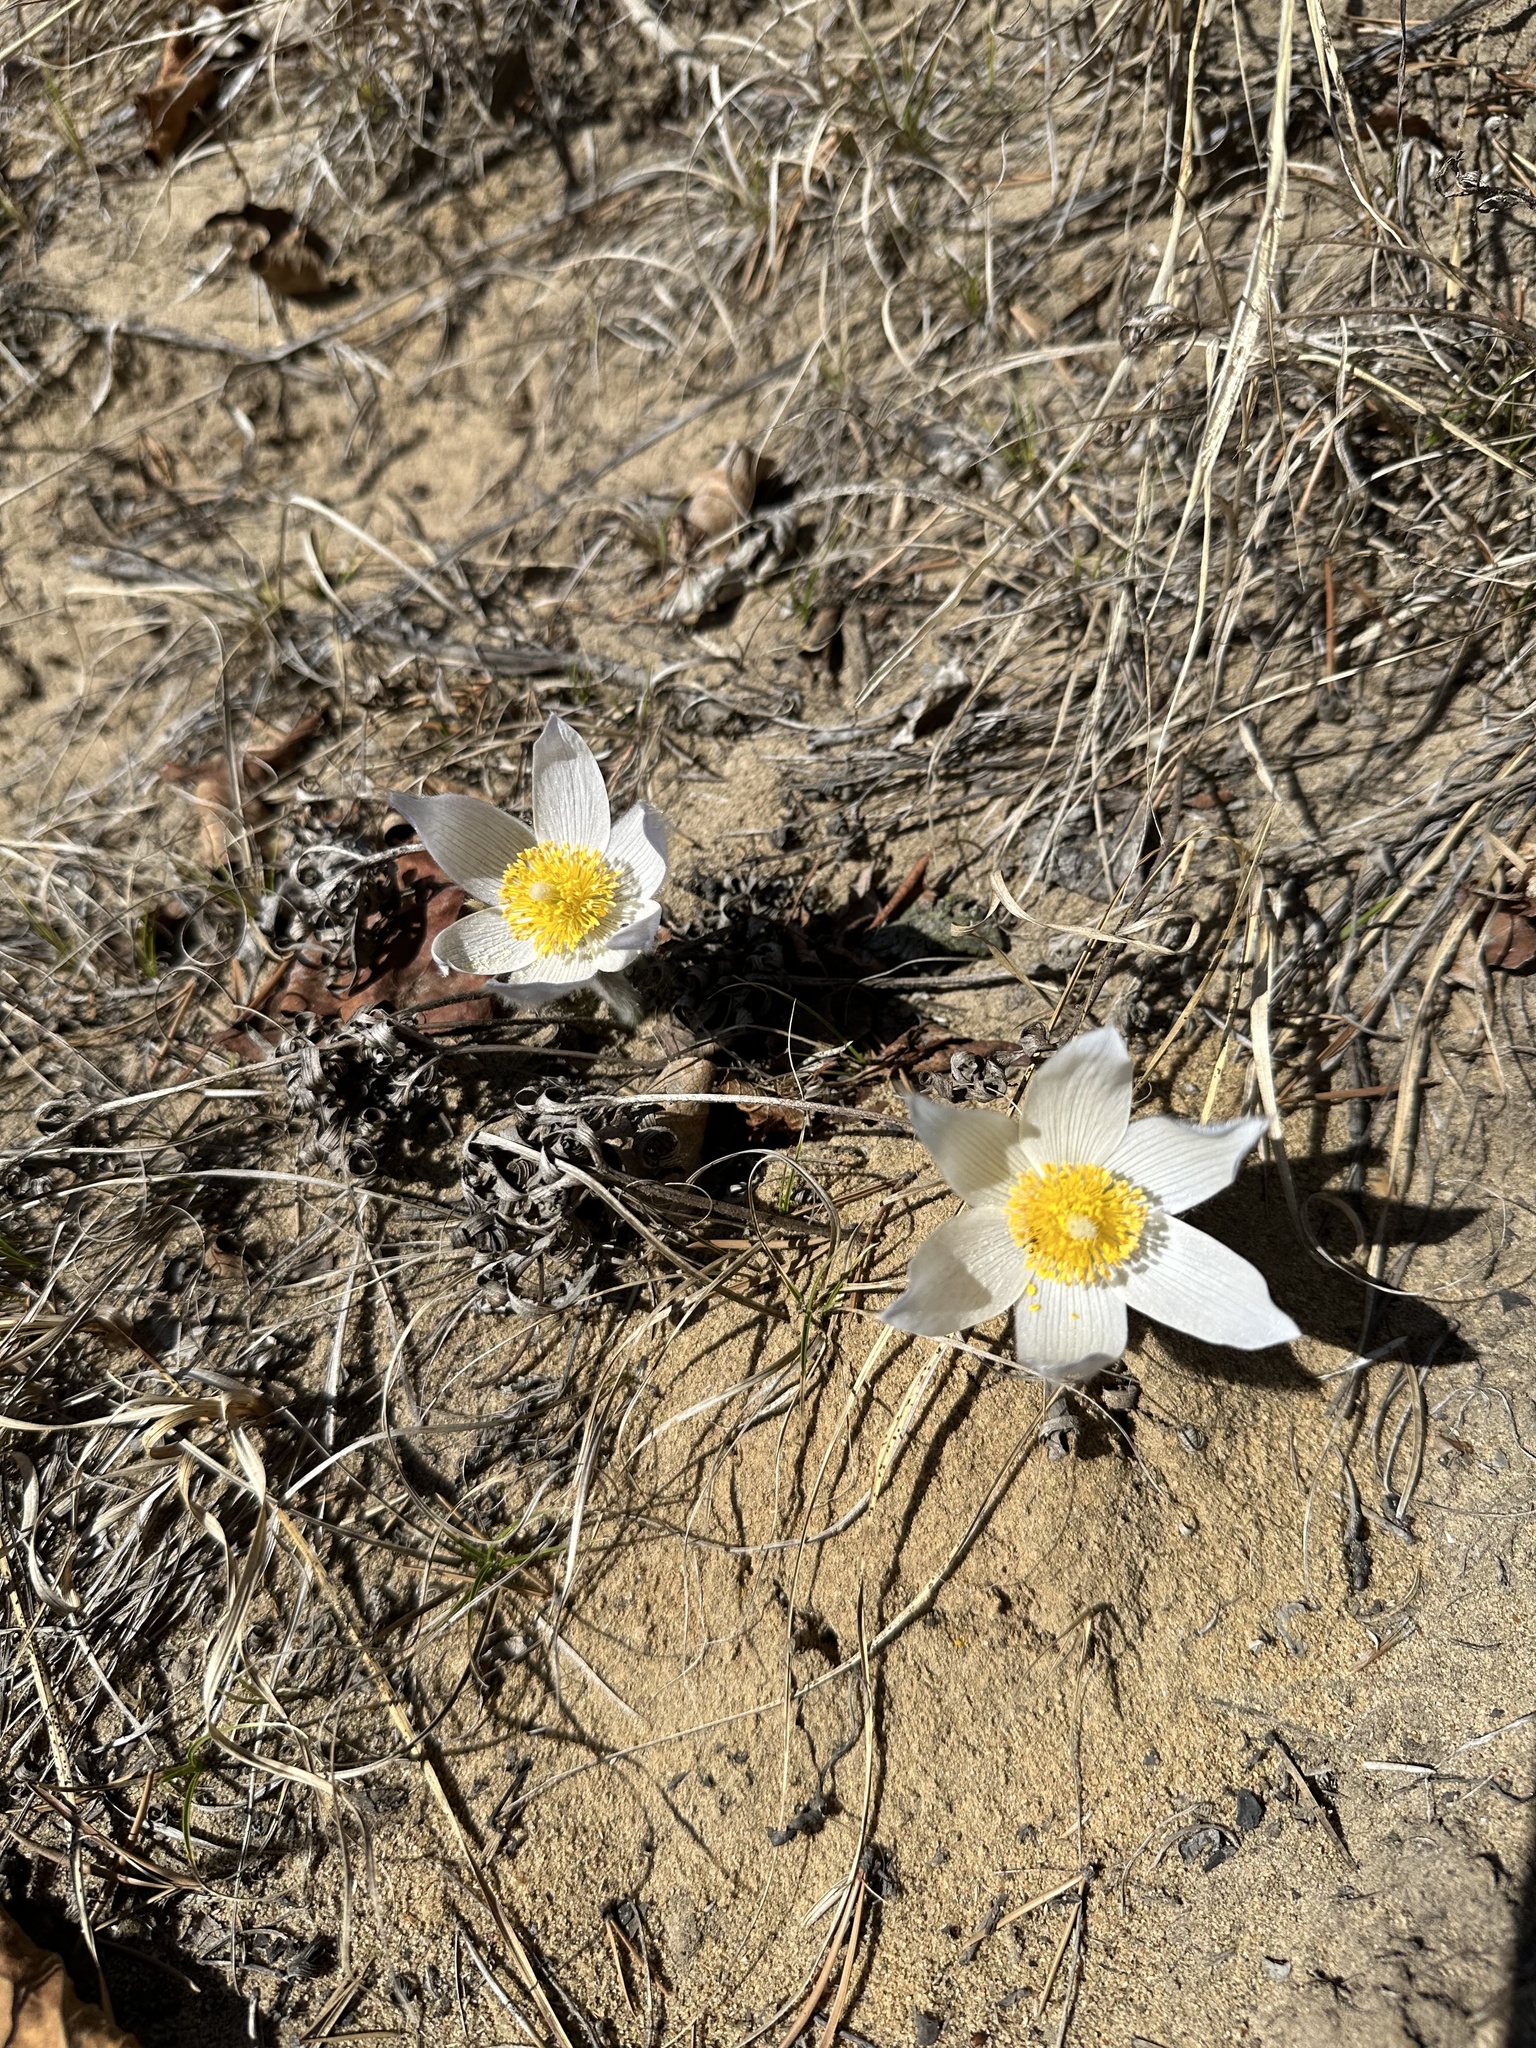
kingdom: Plantae
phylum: Tracheophyta
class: Magnoliopsida
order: Ranunculales
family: Ranunculaceae
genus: Pulsatilla
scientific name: Pulsatilla nuttalliana
